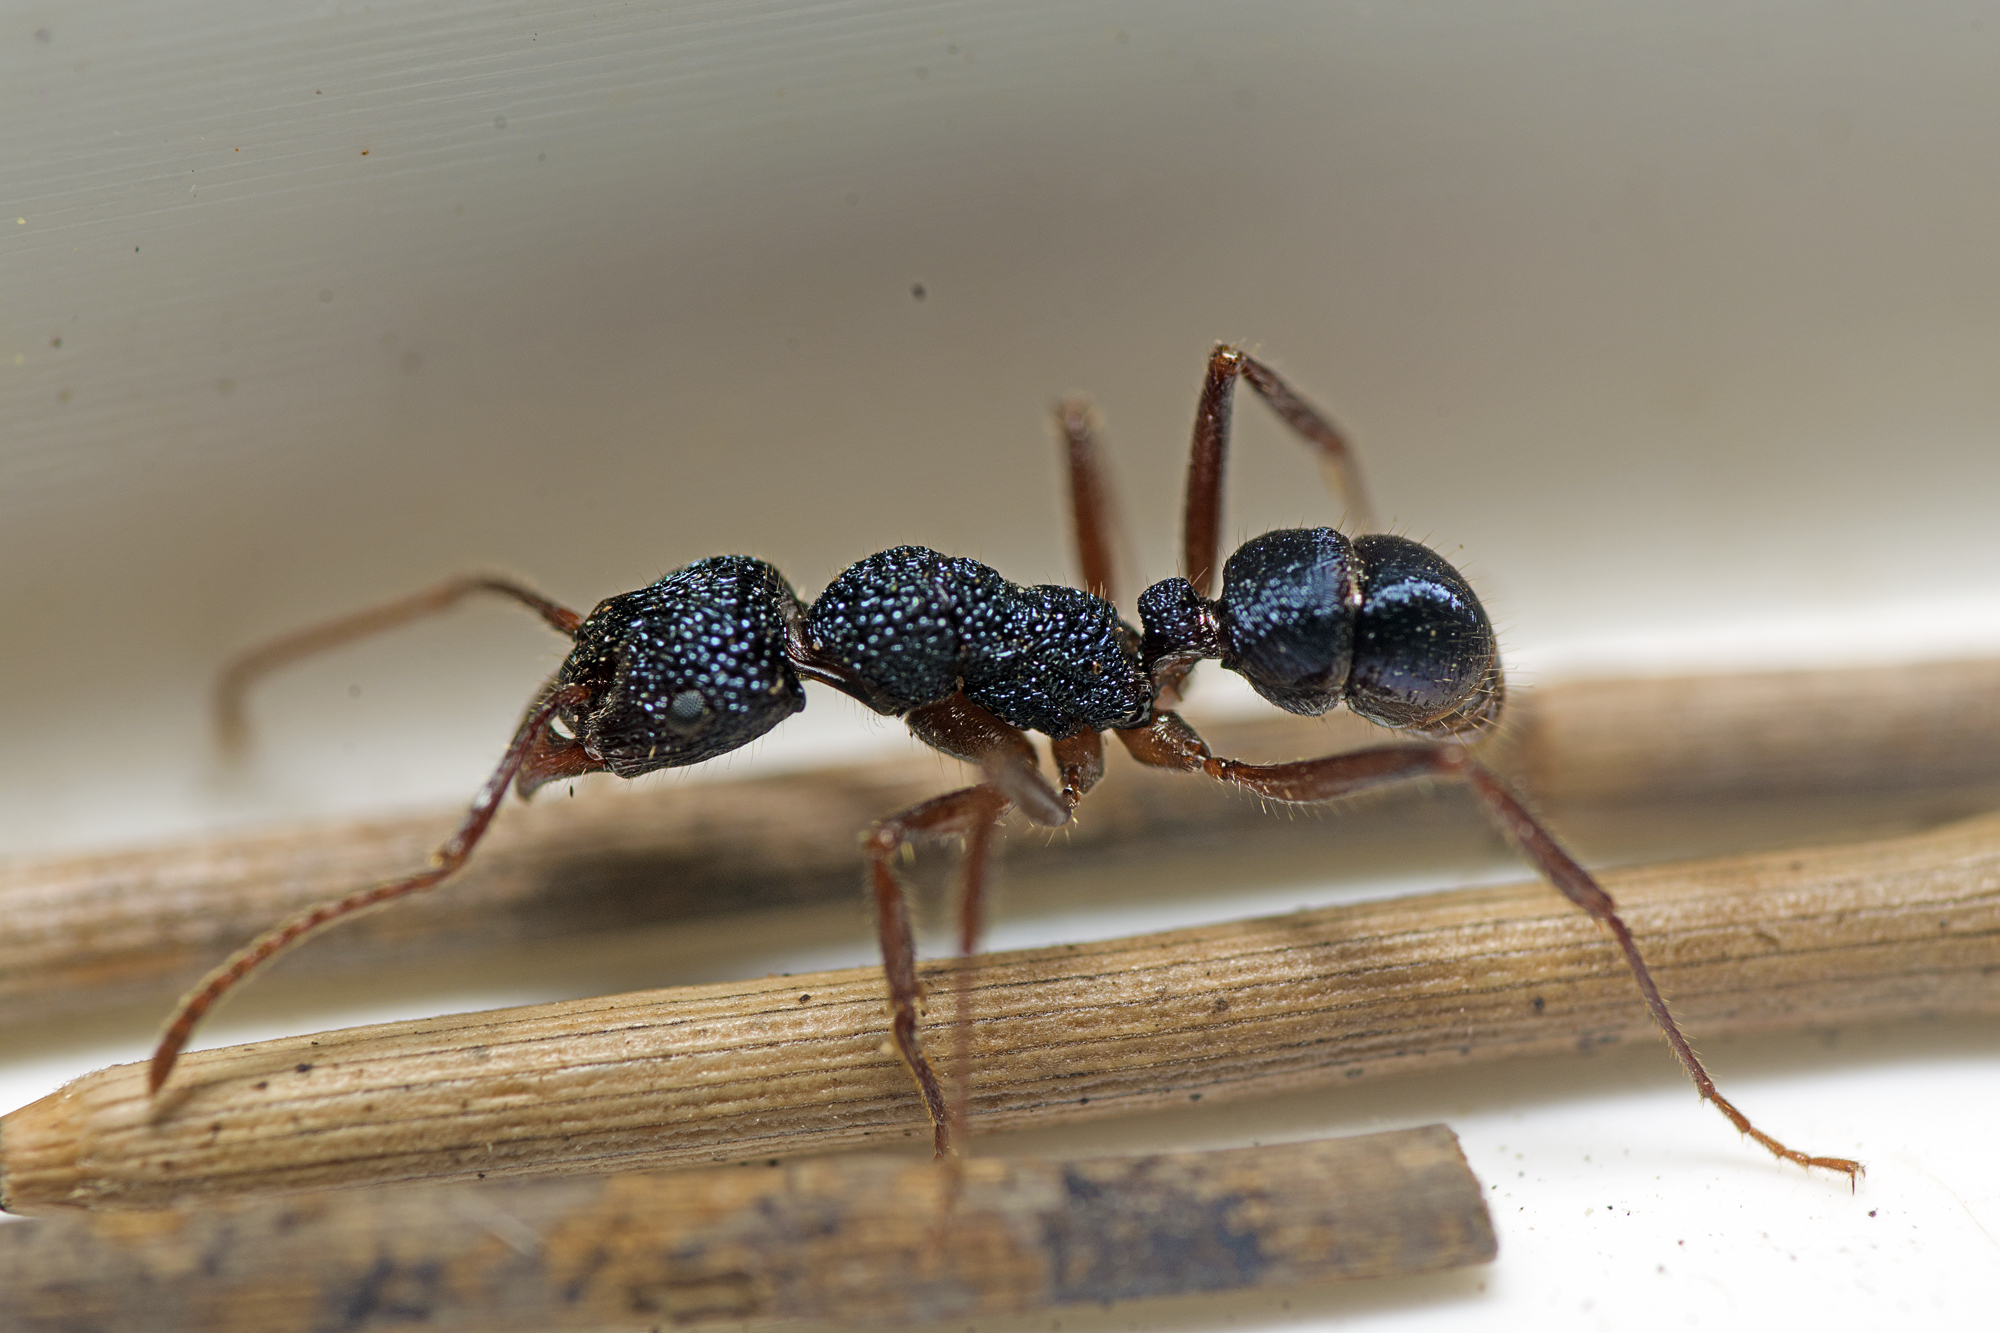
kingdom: Animalia
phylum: Arthropoda
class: Insecta
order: Hymenoptera
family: Formicidae
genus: Rhytidoponera
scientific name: Rhytidoponera chalybaea
